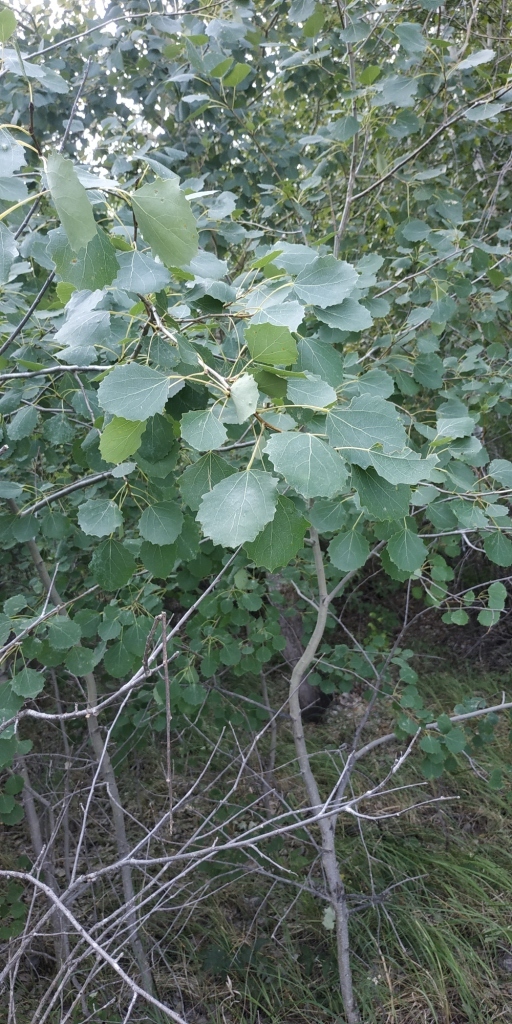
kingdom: Plantae
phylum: Tracheophyta
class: Magnoliopsida
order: Malpighiales
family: Salicaceae
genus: Populus
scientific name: Populus tremula
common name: European aspen
